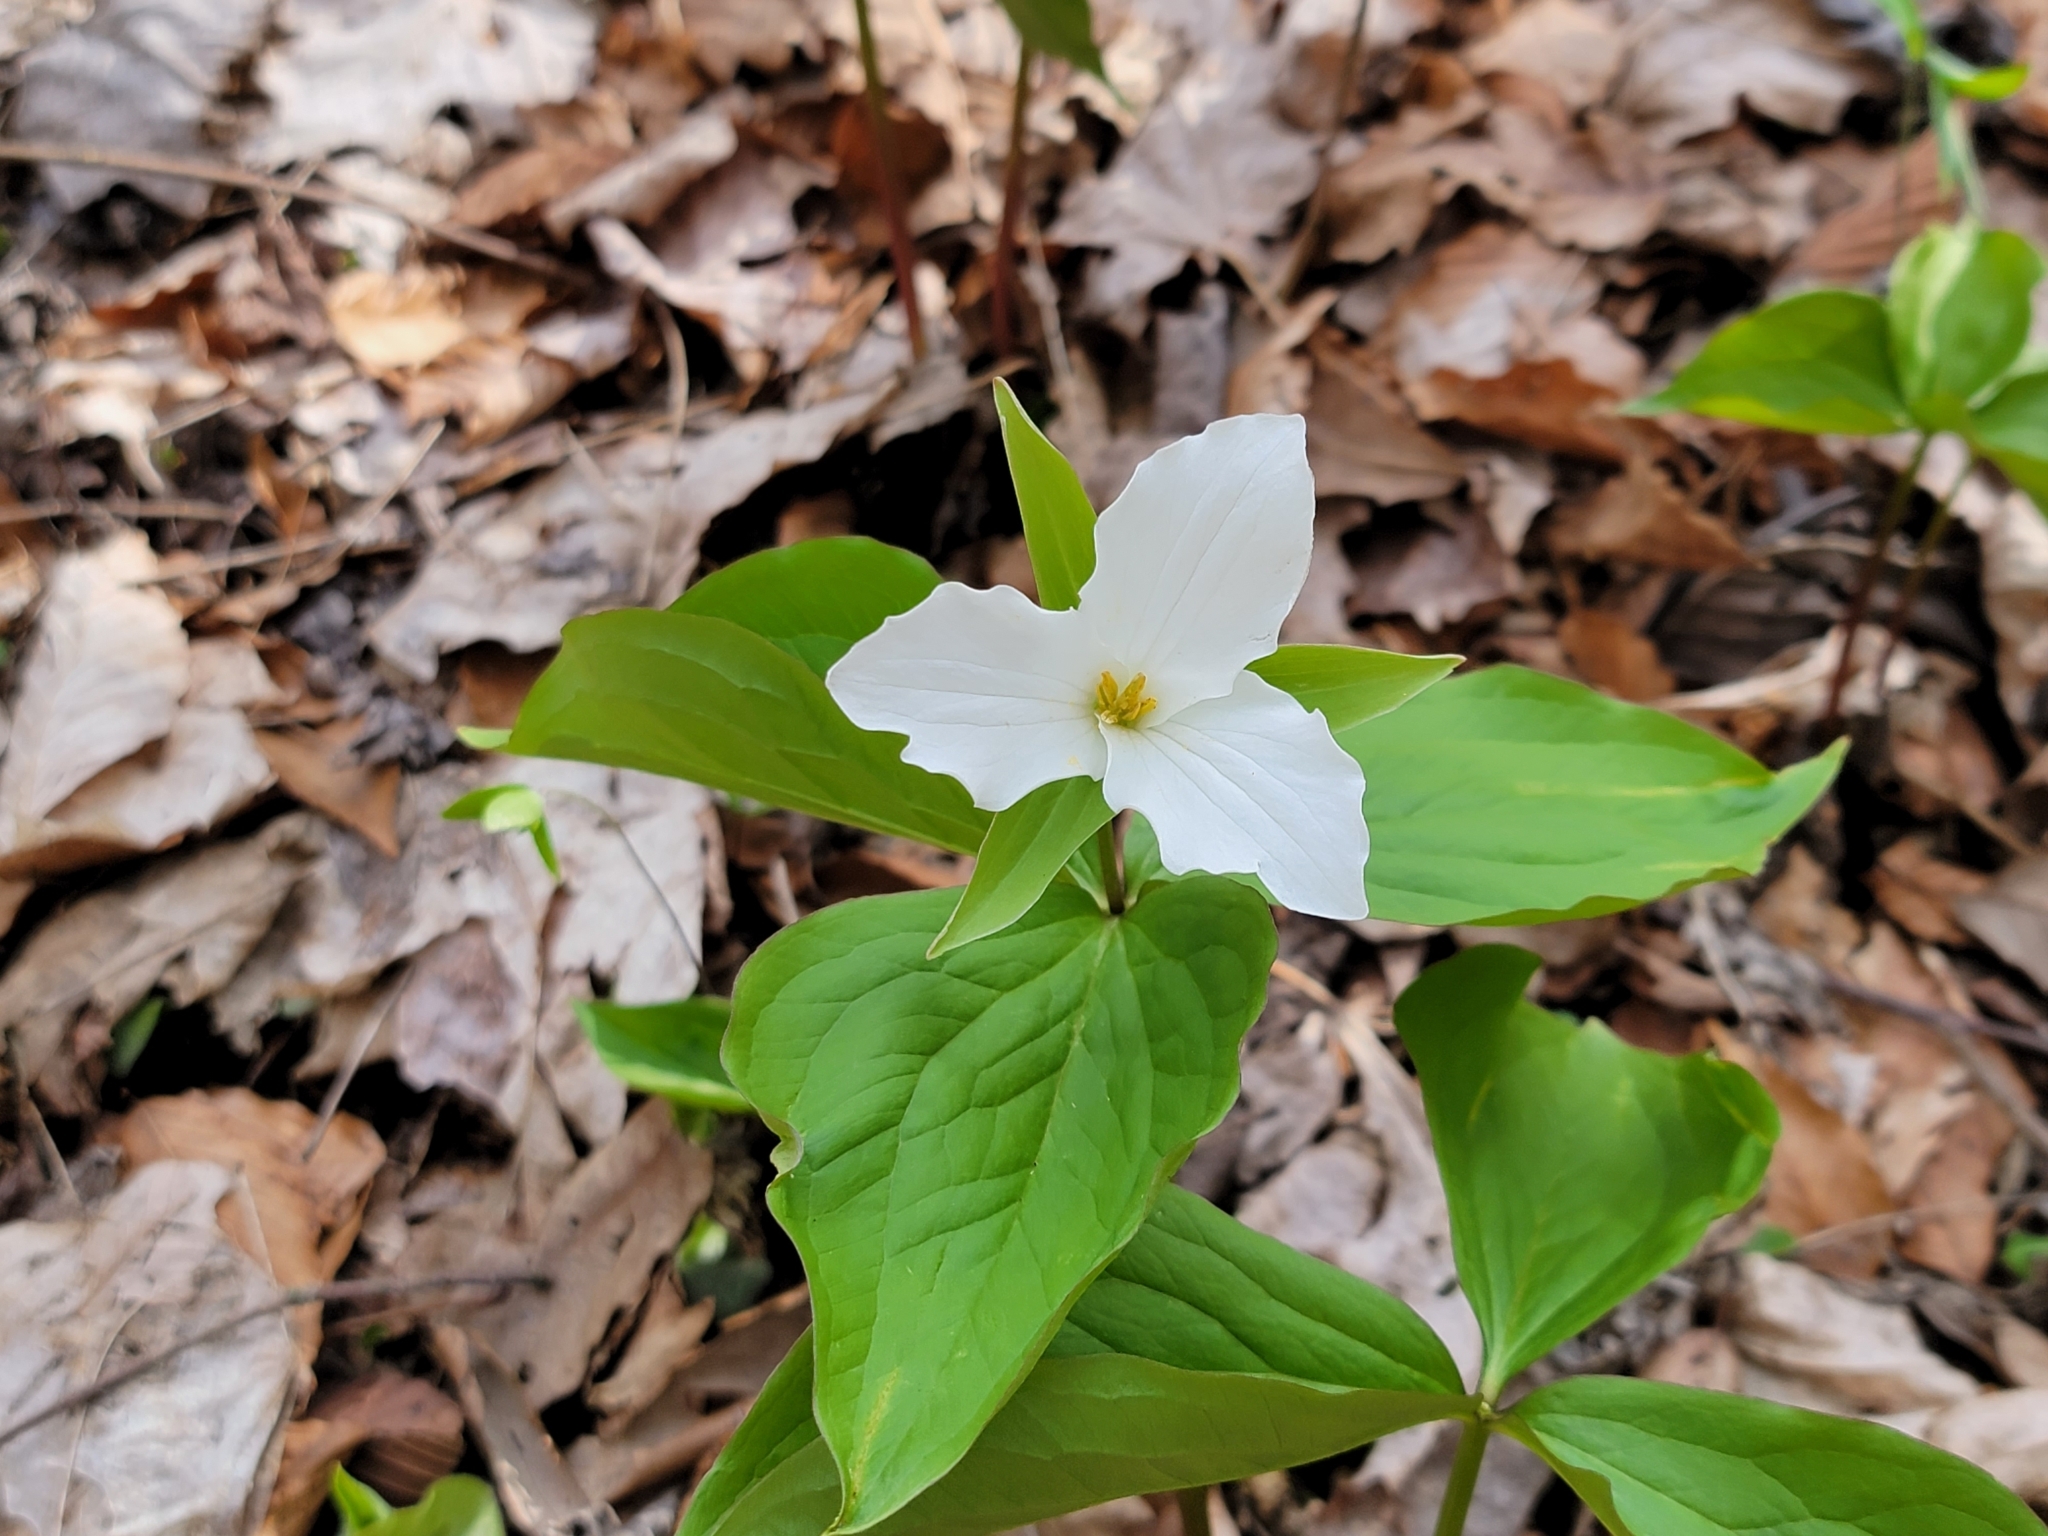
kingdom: Plantae
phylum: Tracheophyta
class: Liliopsida
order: Liliales
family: Melanthiaceae
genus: Trillium
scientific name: Trillium grandiflorum
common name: Great white trillium
